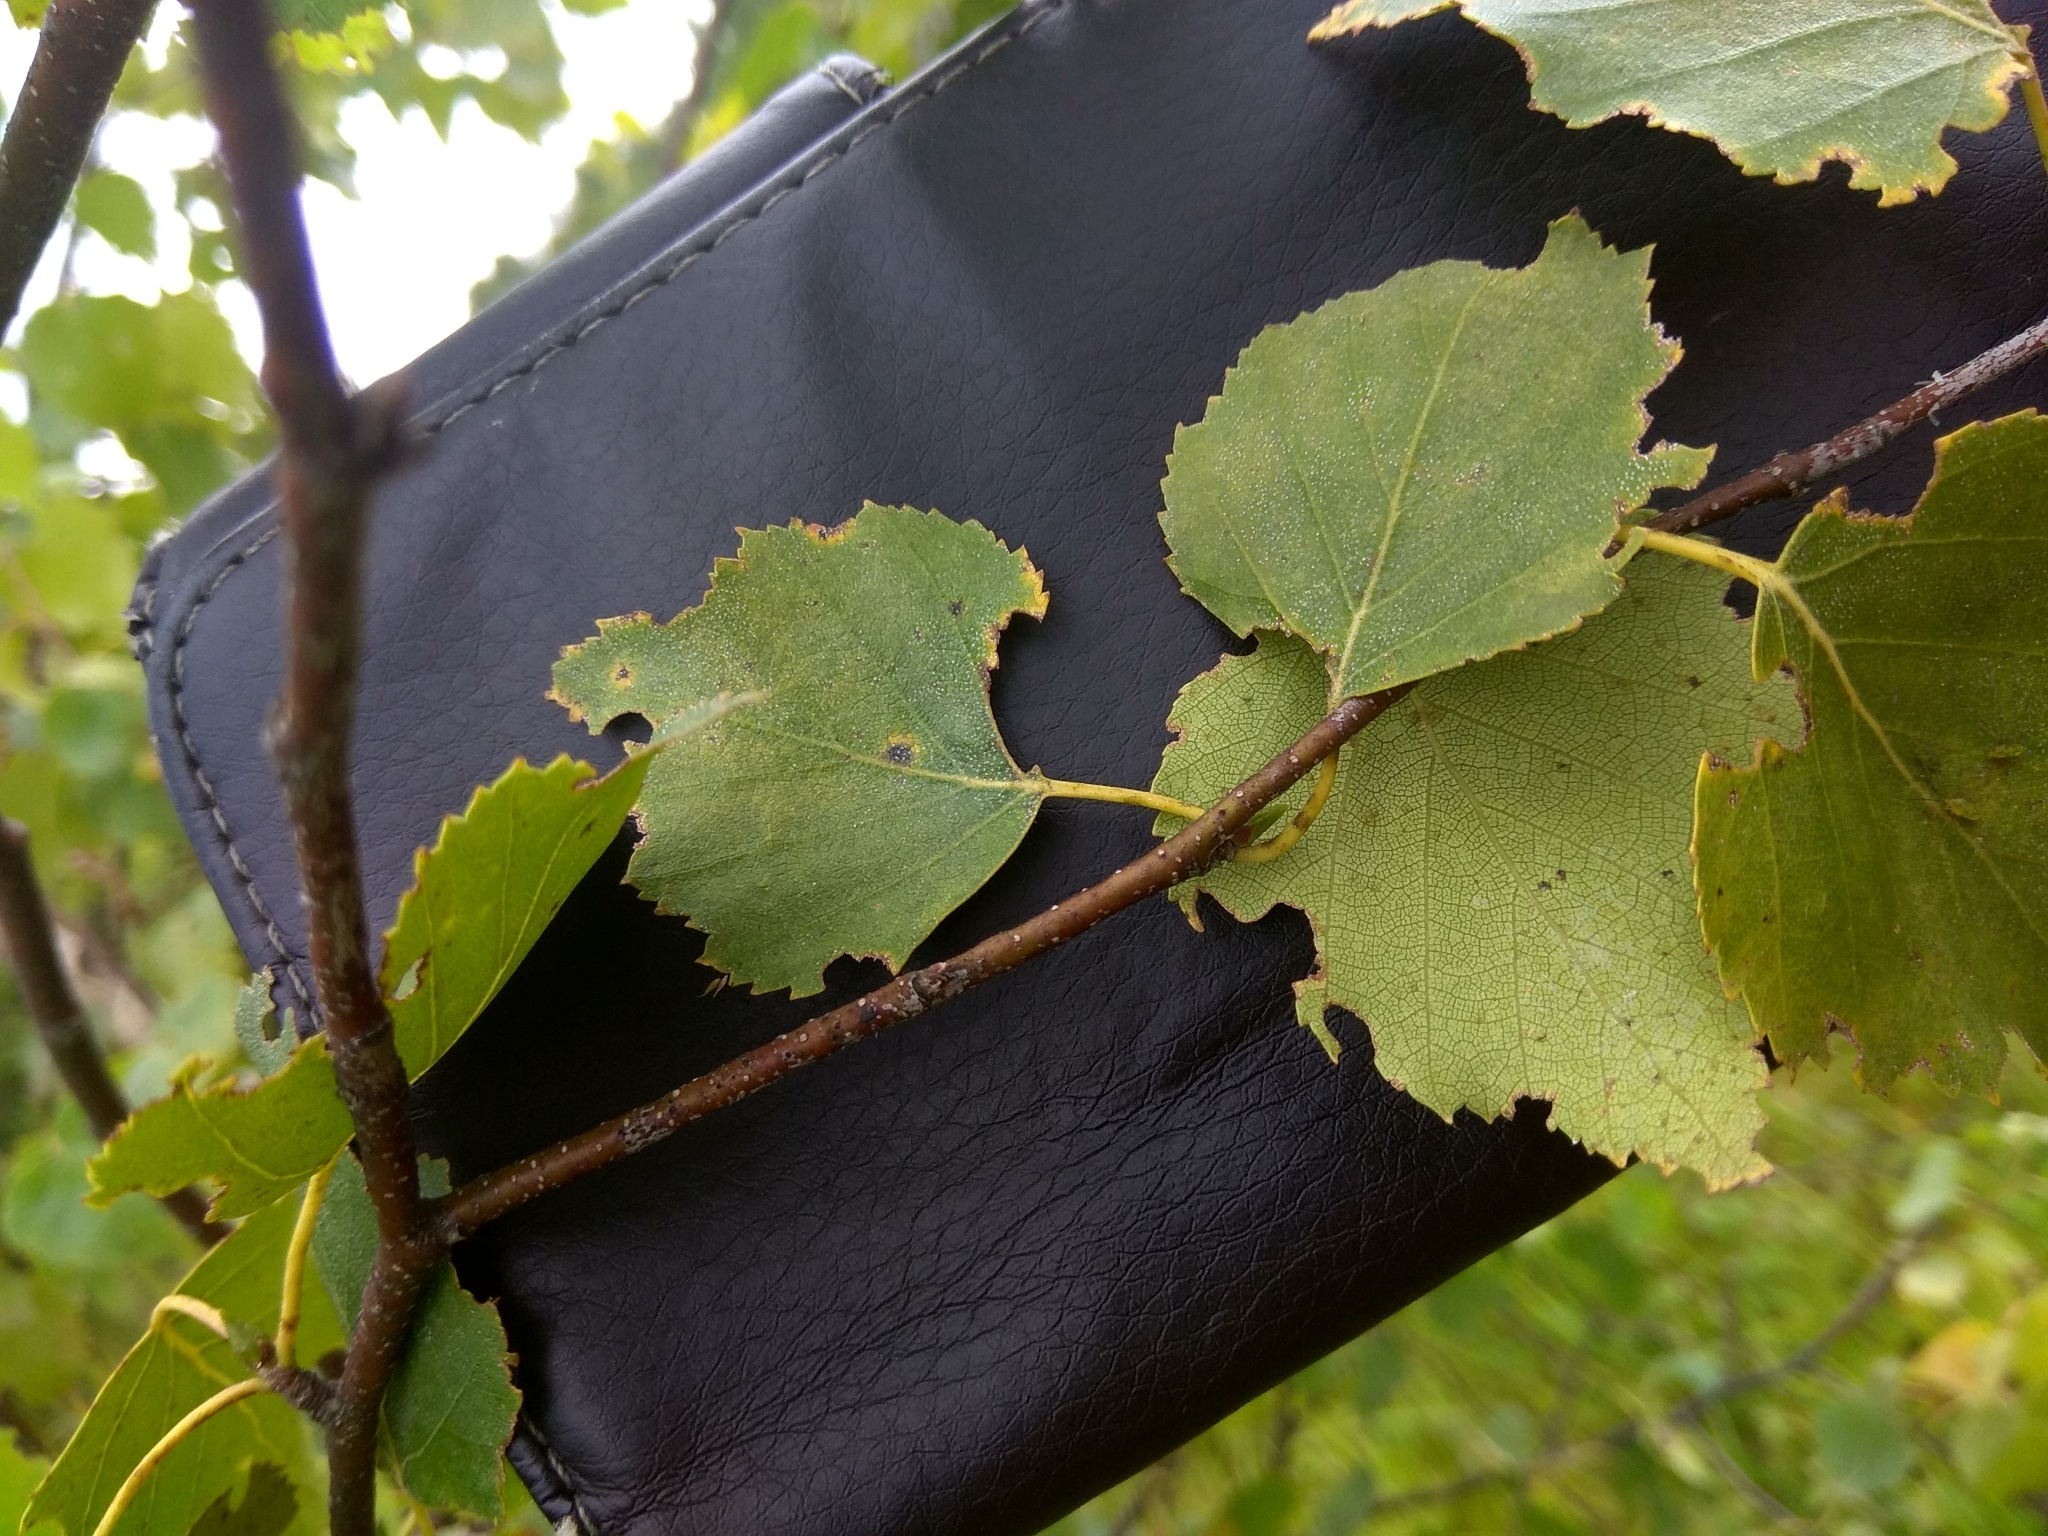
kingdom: Plantae
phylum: Tracheophyta
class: Magnoliopsida
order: Fagales
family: Betulaceae
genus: Betula
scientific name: Betula pendula
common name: Silver birch
